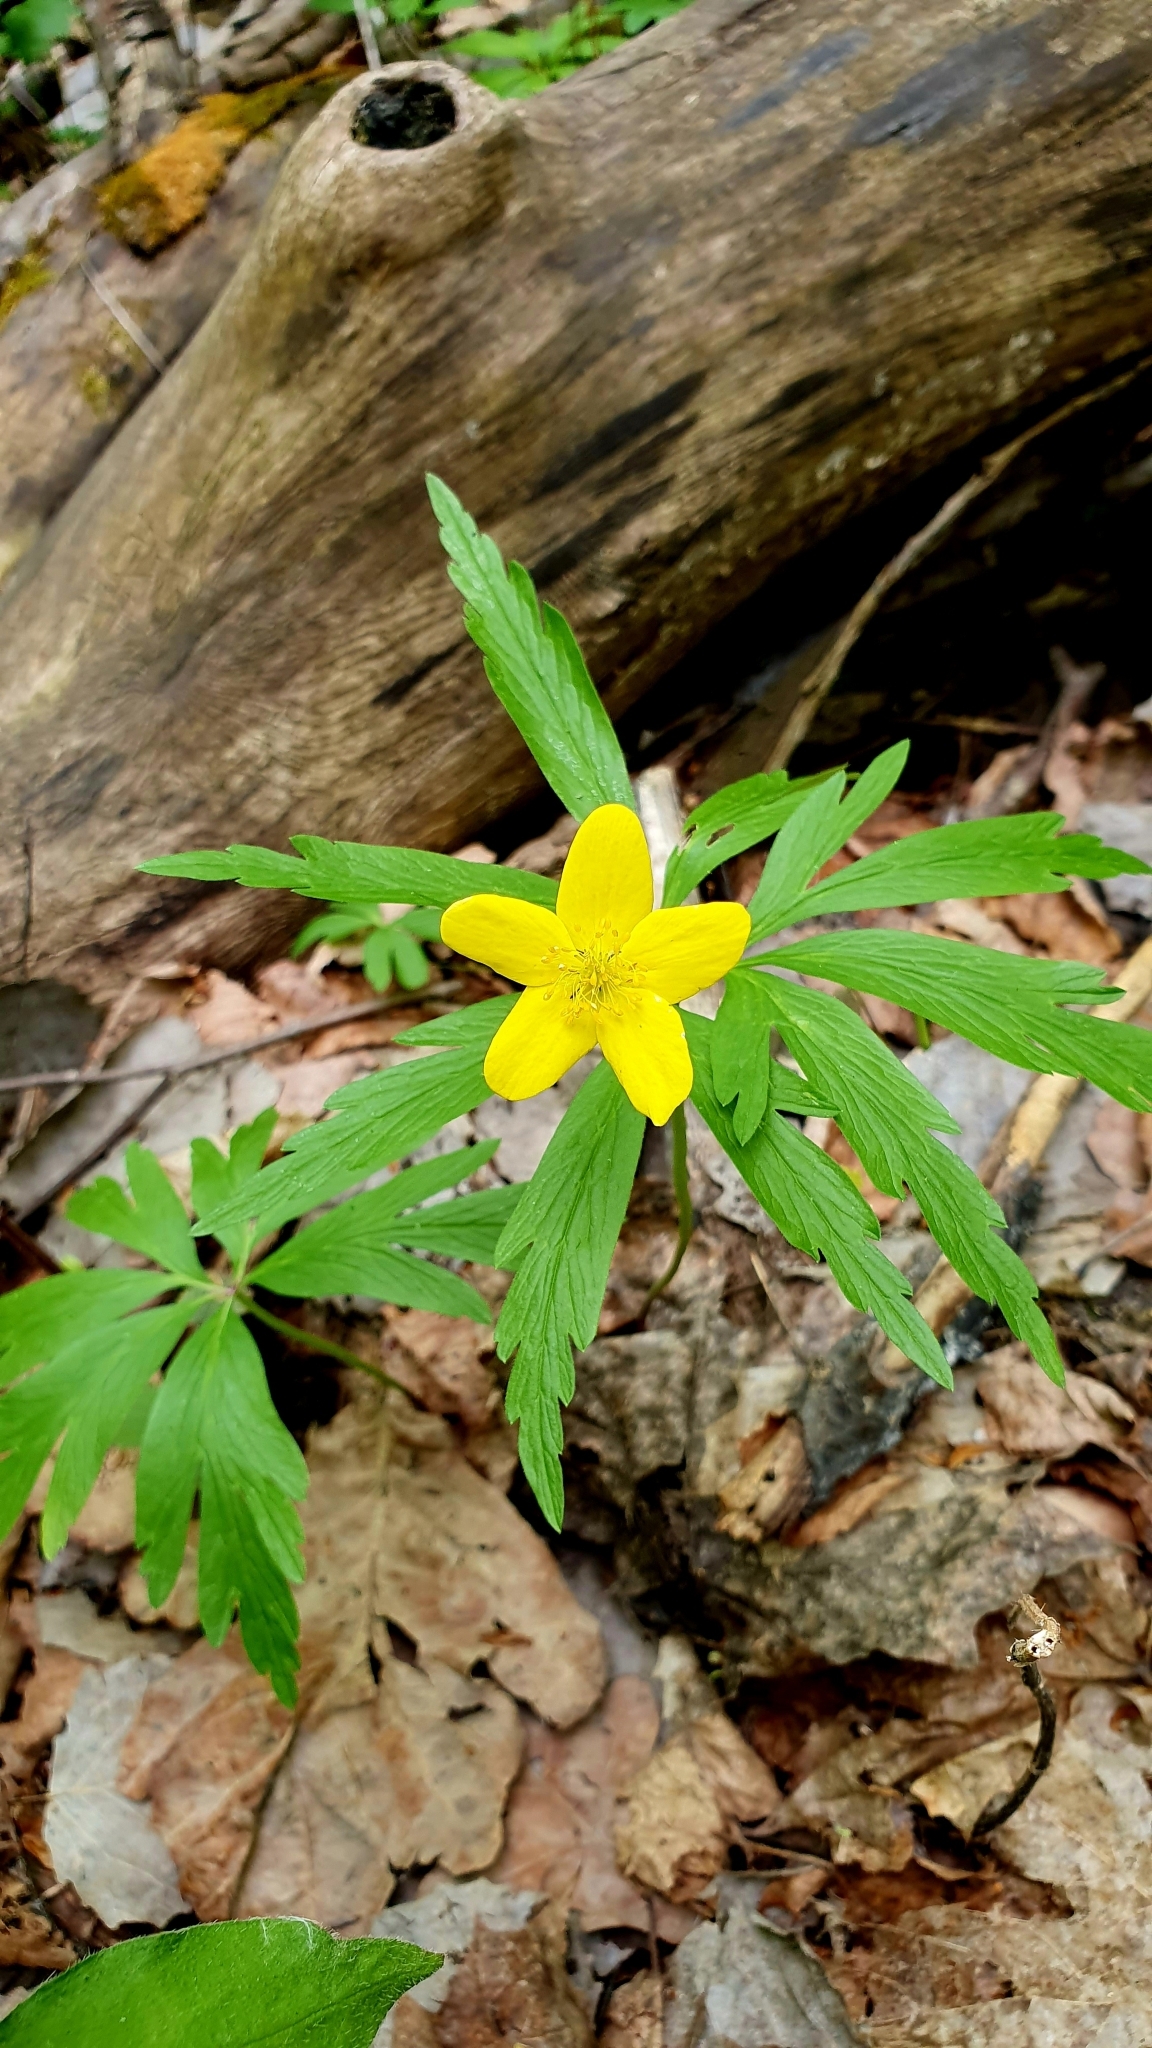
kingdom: Plantae
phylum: Tracheophyta
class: Magnoliopsida
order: Ranunculales
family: Ranunculaceae
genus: Anemone
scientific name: Anemone ranunculoides
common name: Yellow anemone
